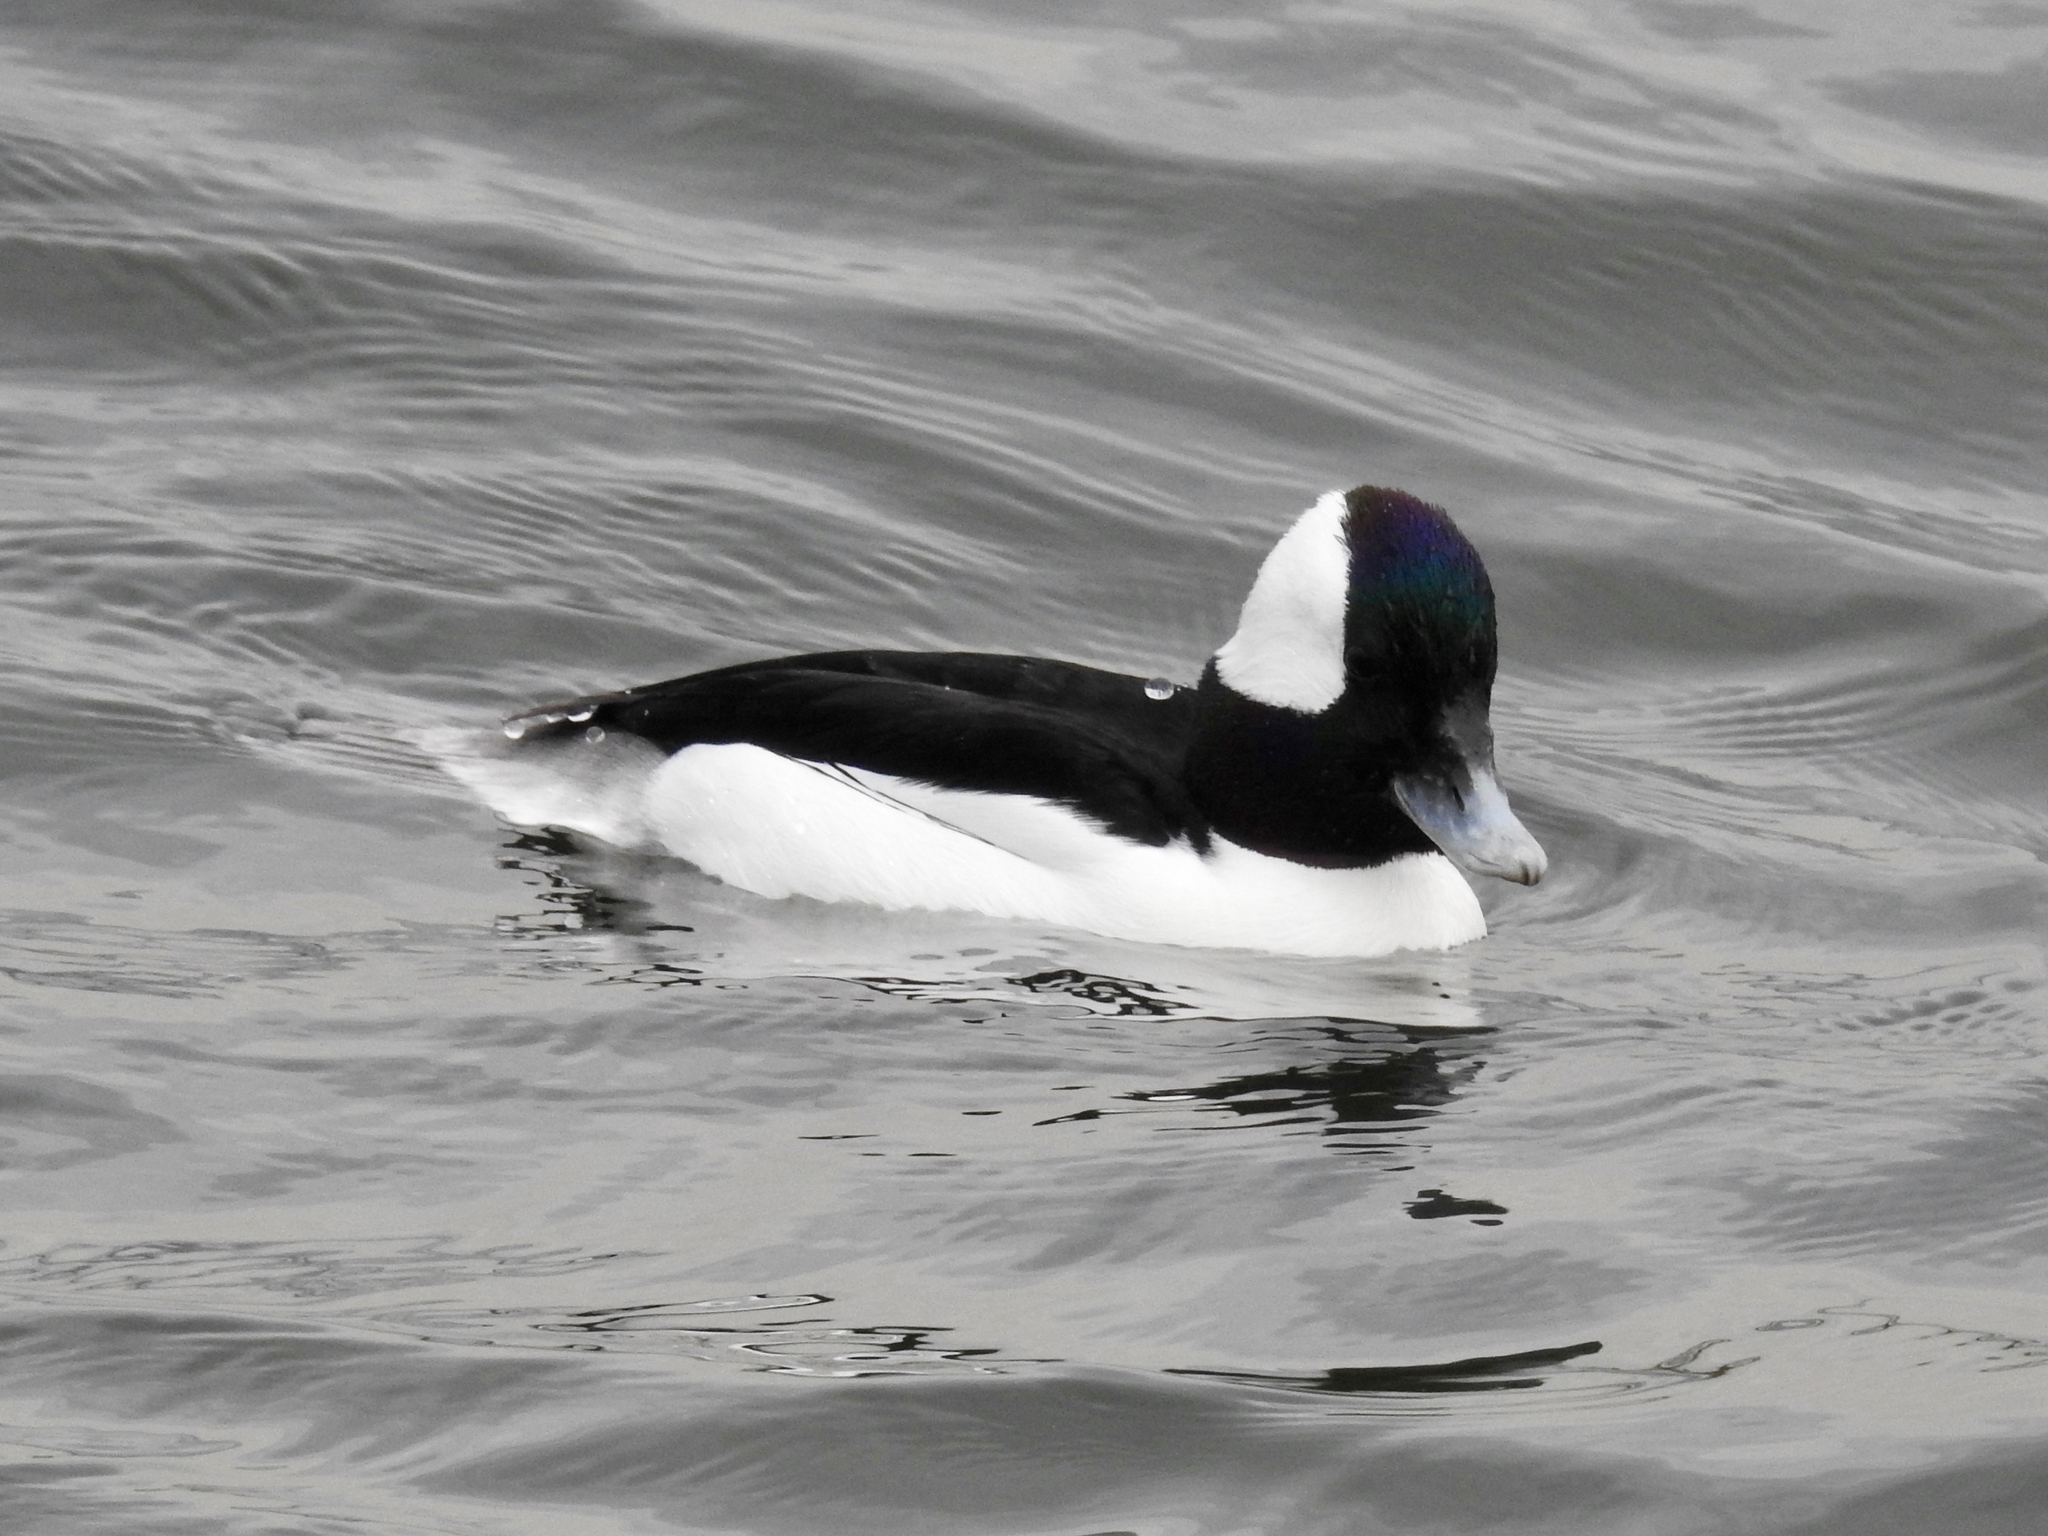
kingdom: Animalia
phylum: Chordata
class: Aves
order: Anseriformes
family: Anatidae
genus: Bucephala
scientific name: Bucephala albeola
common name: Bufflehead
